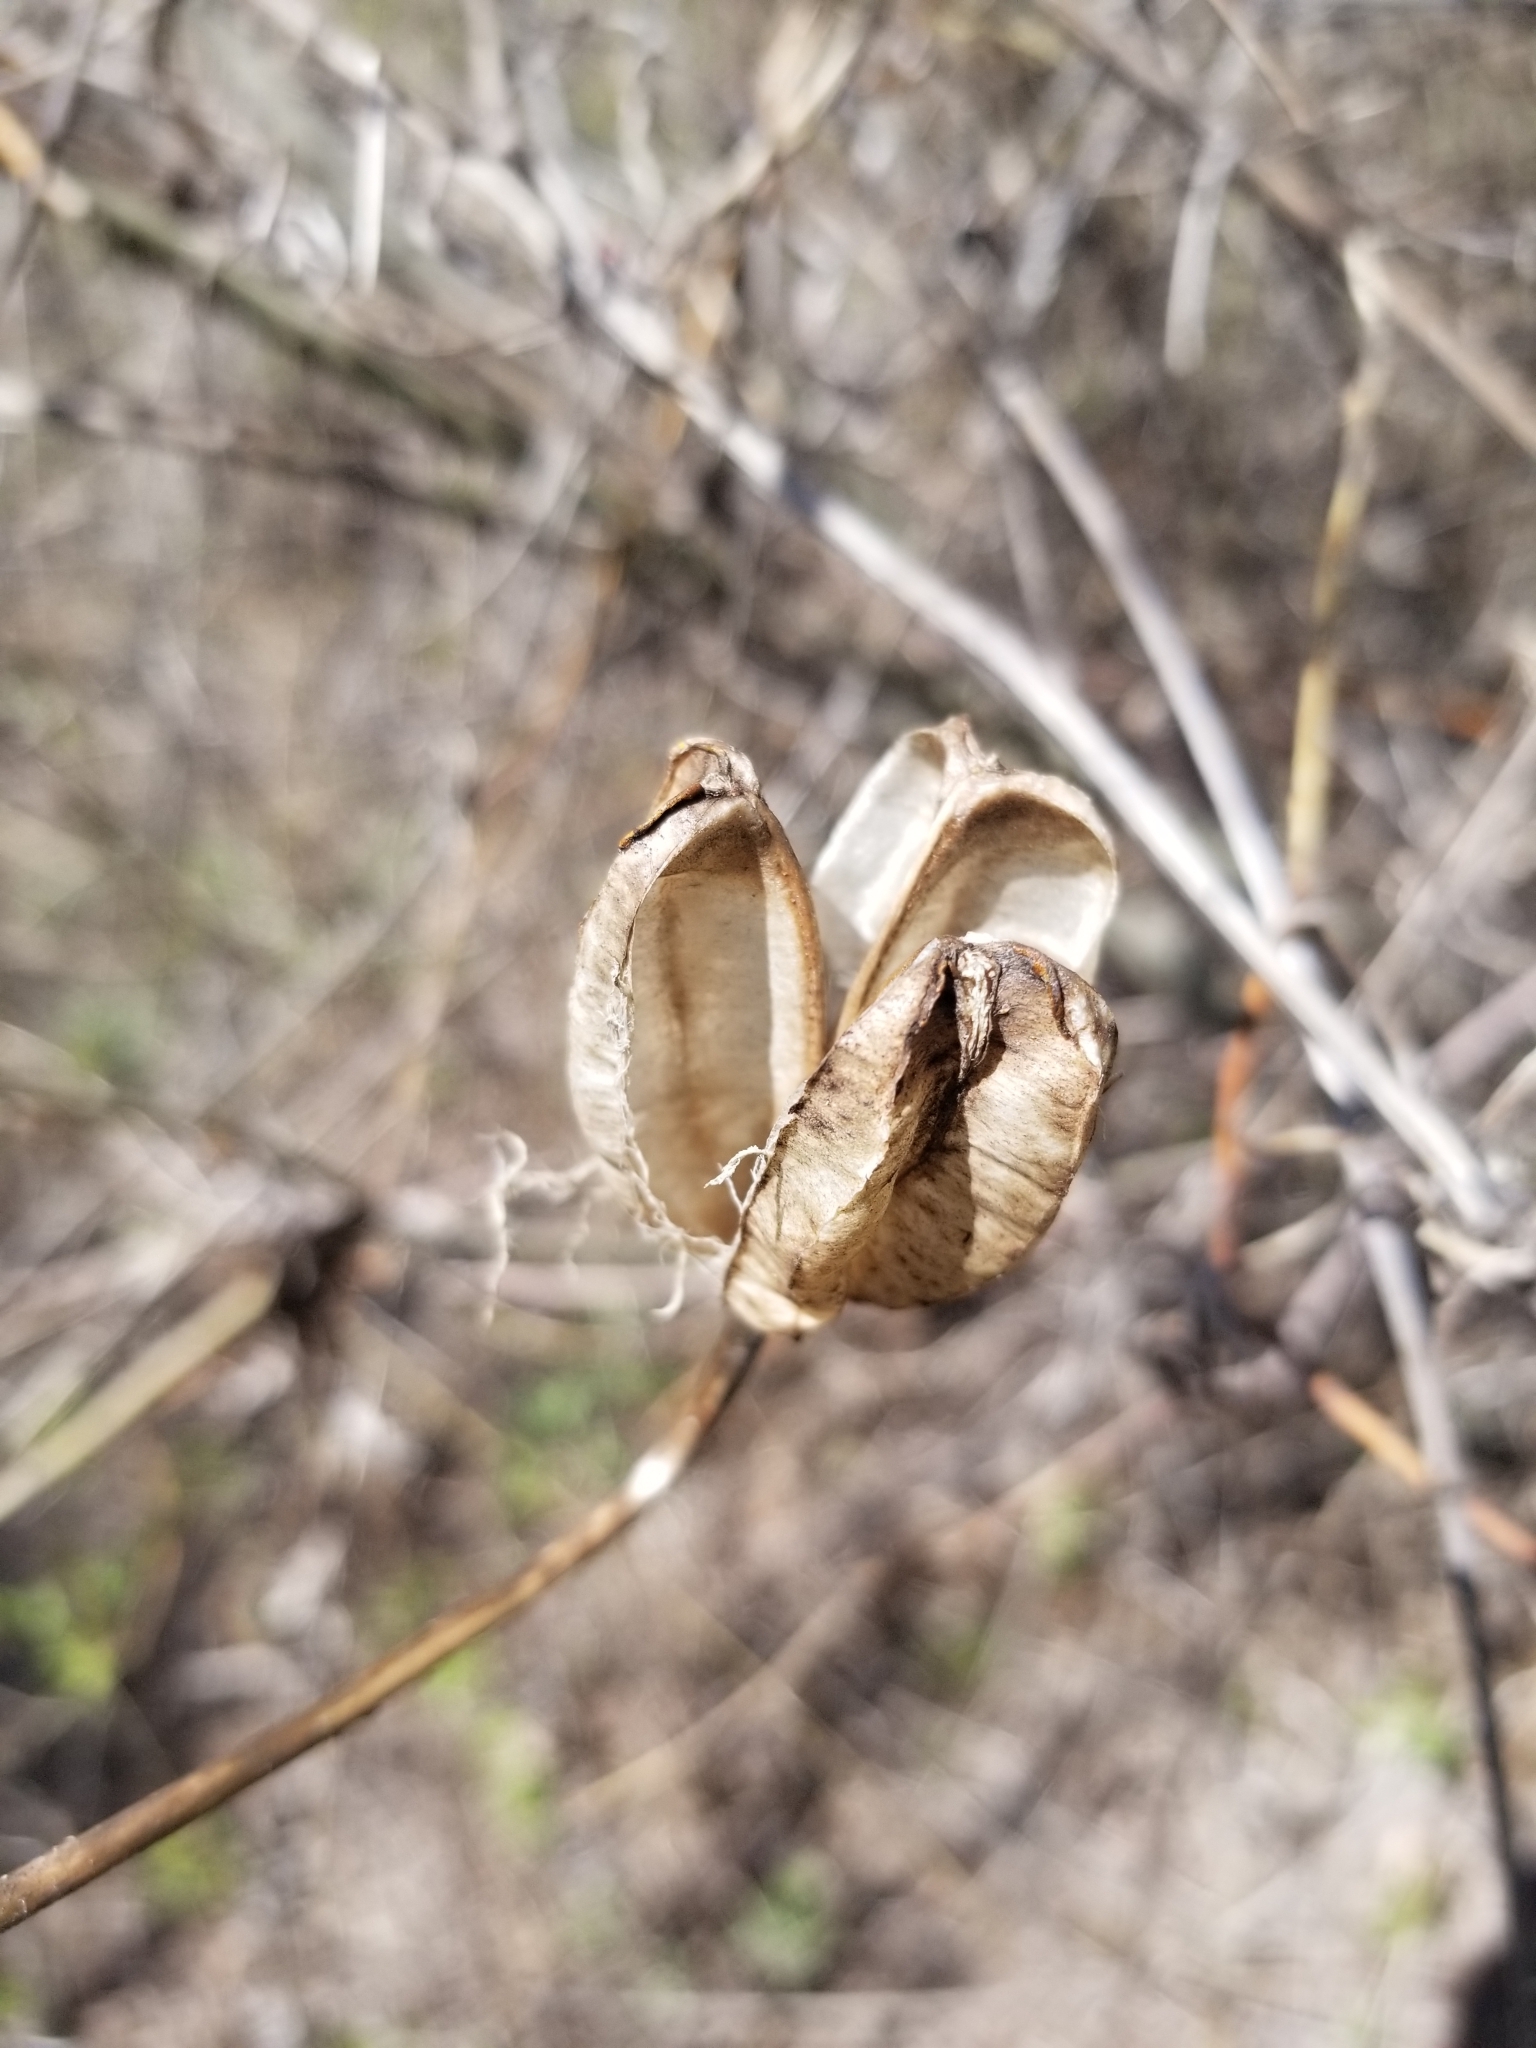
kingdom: Plantae
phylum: Tracheophyta
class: Liliopsida
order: Liliales
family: Liliaceae
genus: Lilium
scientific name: Lilium humboldtii
